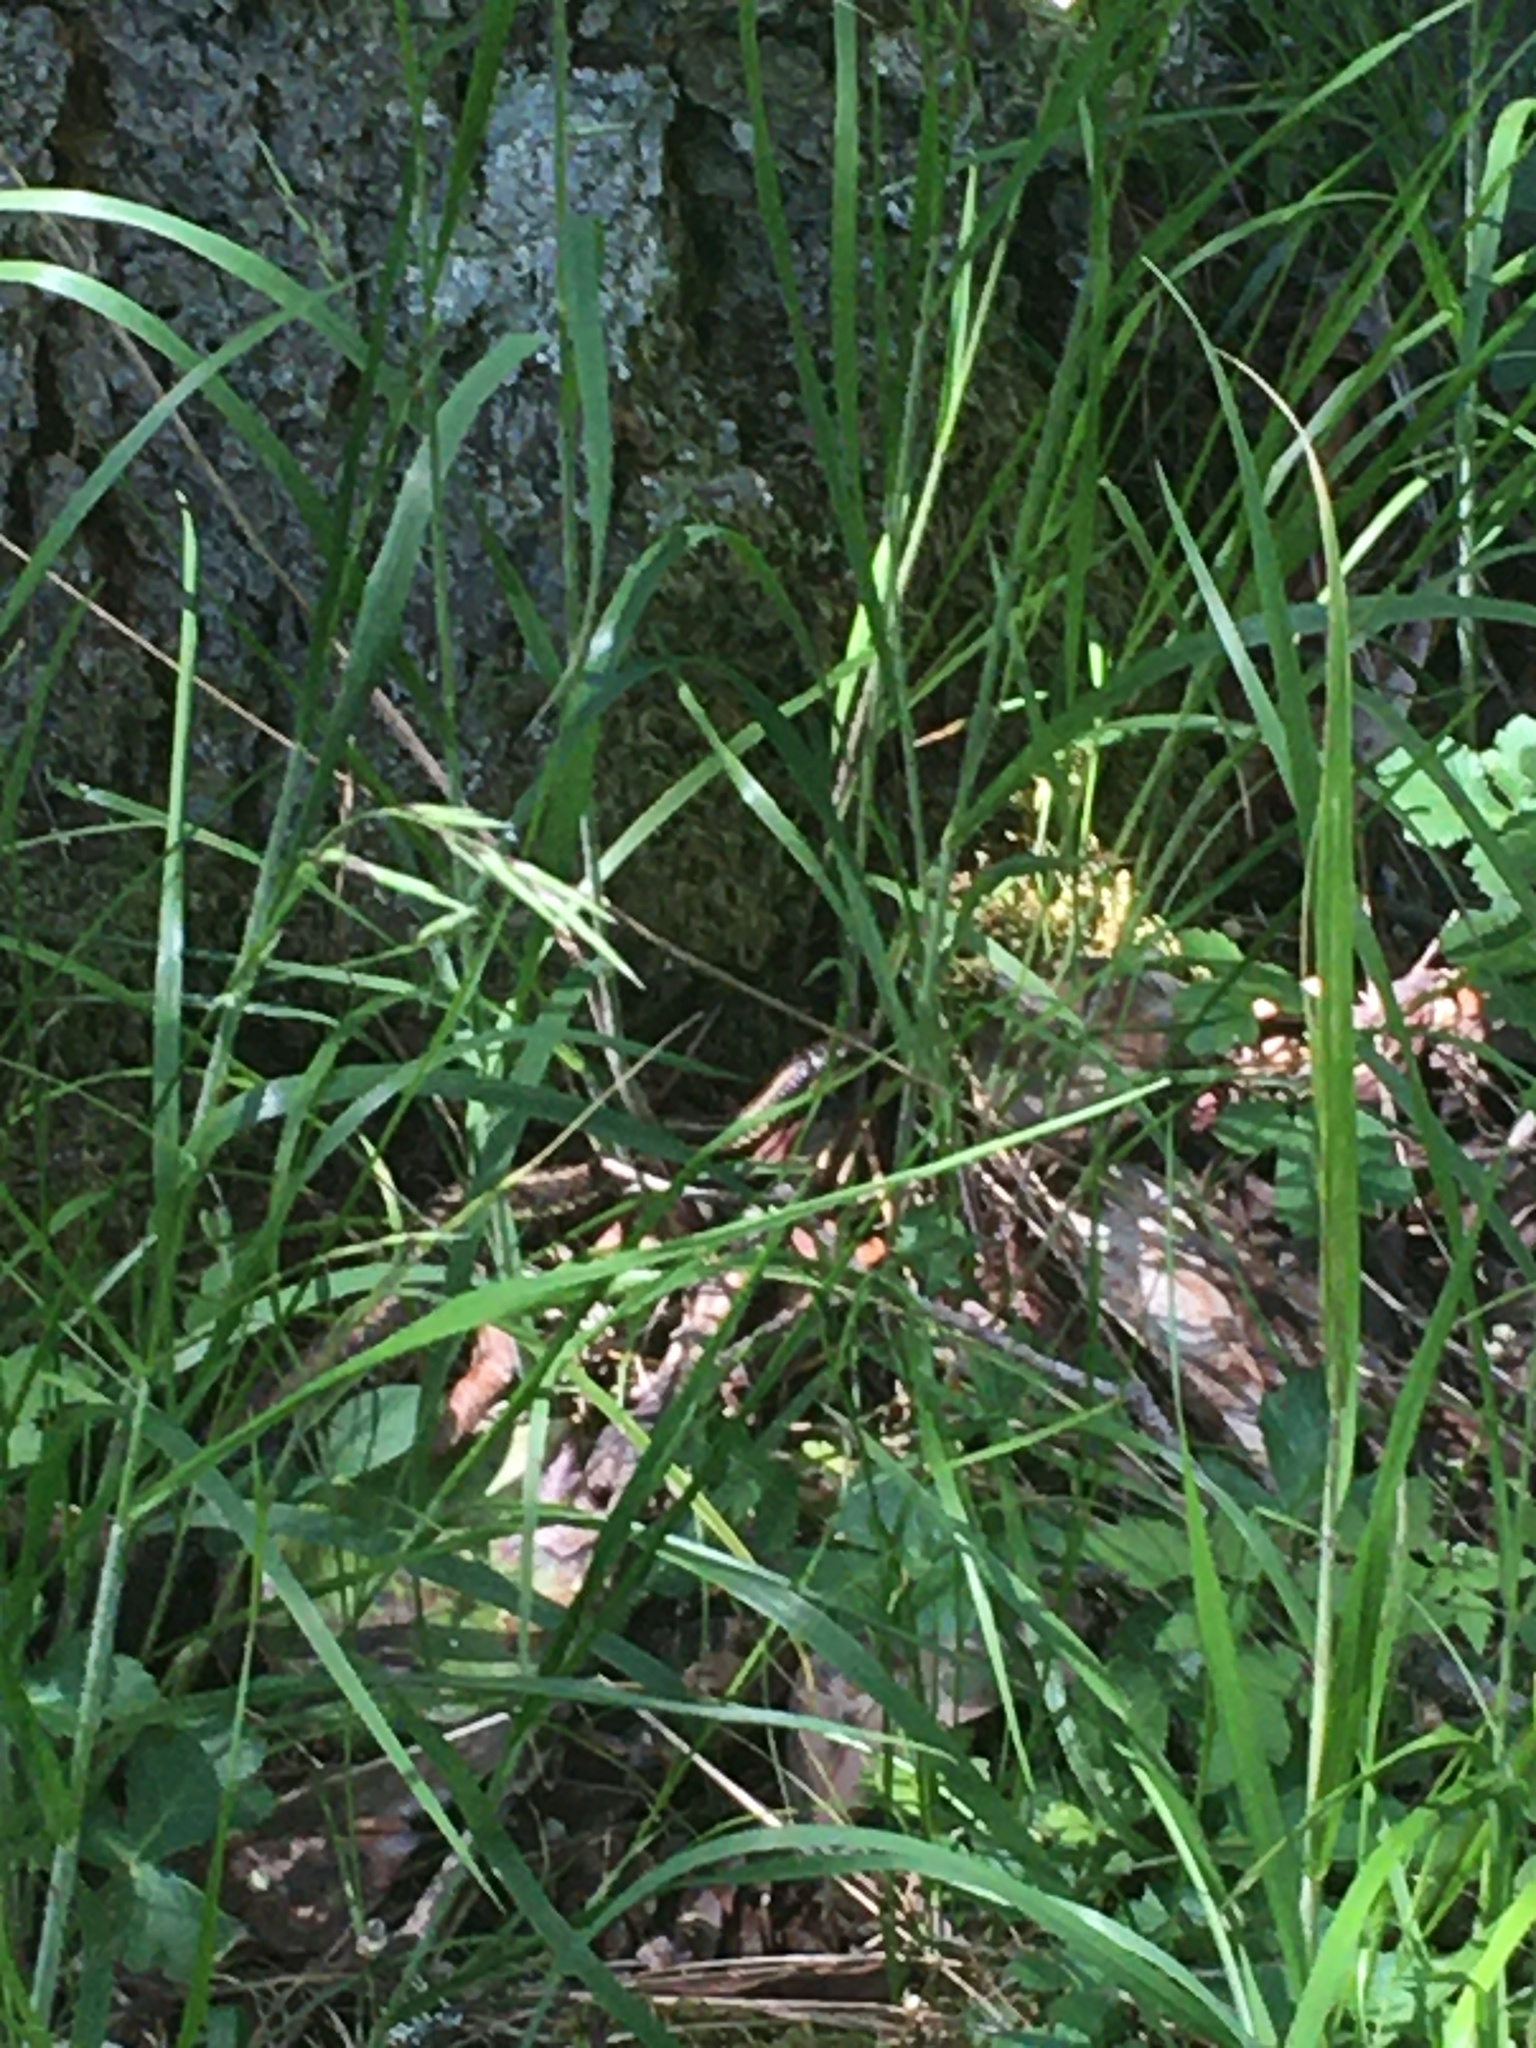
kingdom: Animalia
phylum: Chordata
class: Squamata
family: Colubridae
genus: Thamnophis
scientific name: Thamnophis ordinoides
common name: Northwestern garter snake
